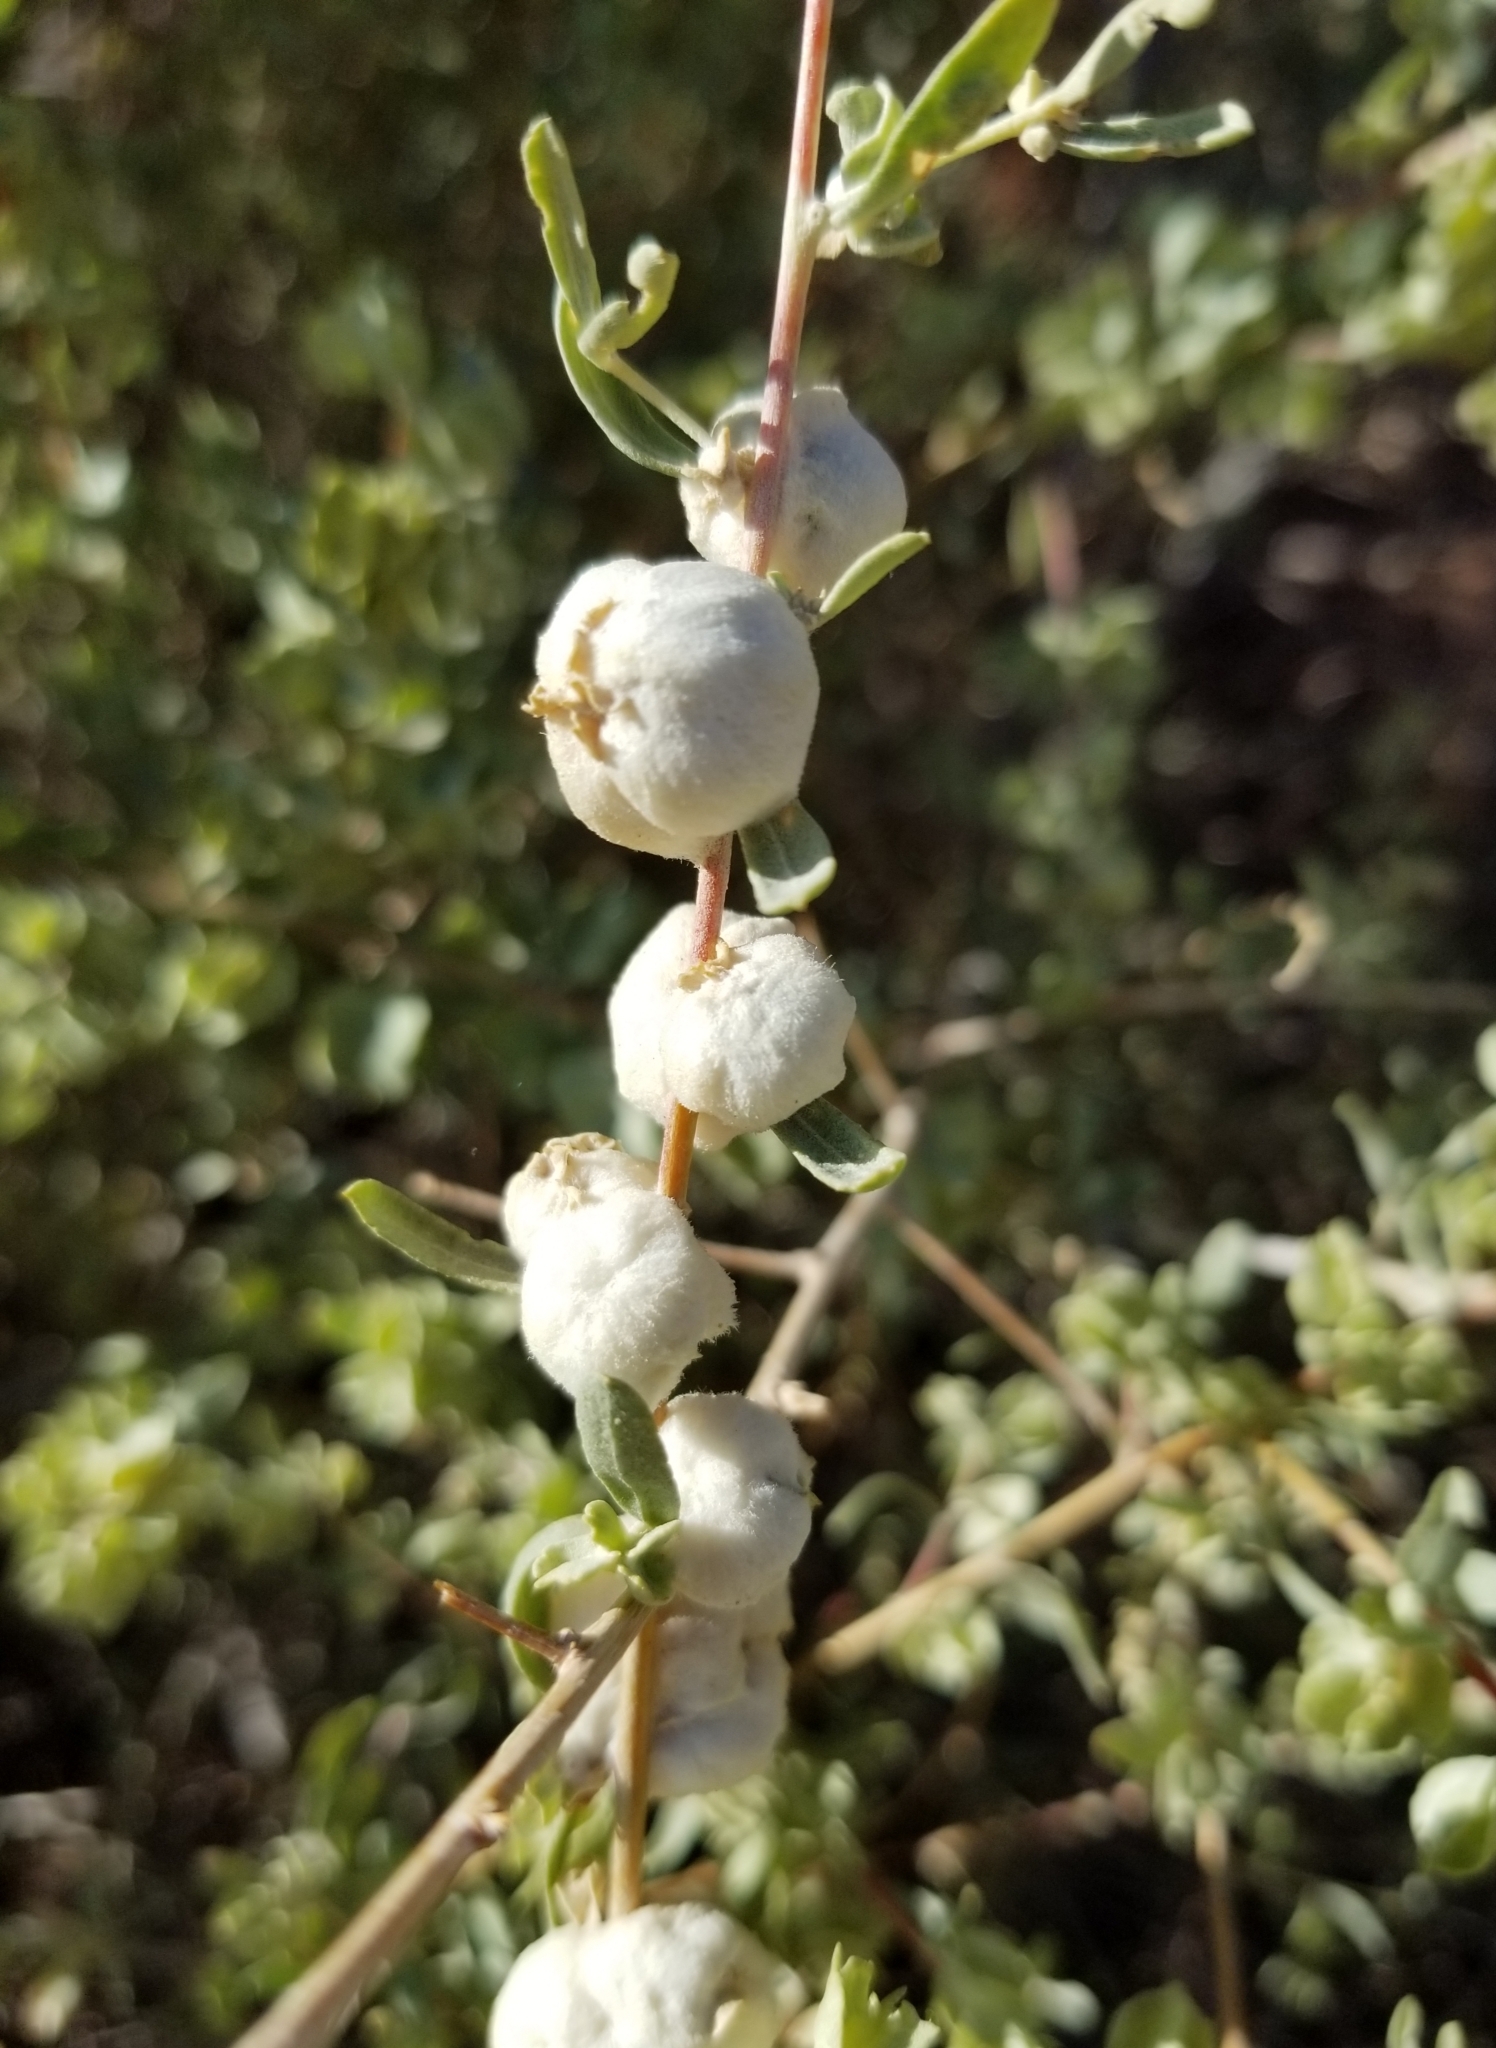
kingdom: Animalia
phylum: Arthropoda
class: Insecta
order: Diptera
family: Cecidomyiidae
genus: Asphondylia
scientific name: Asphondylia neomexicana
